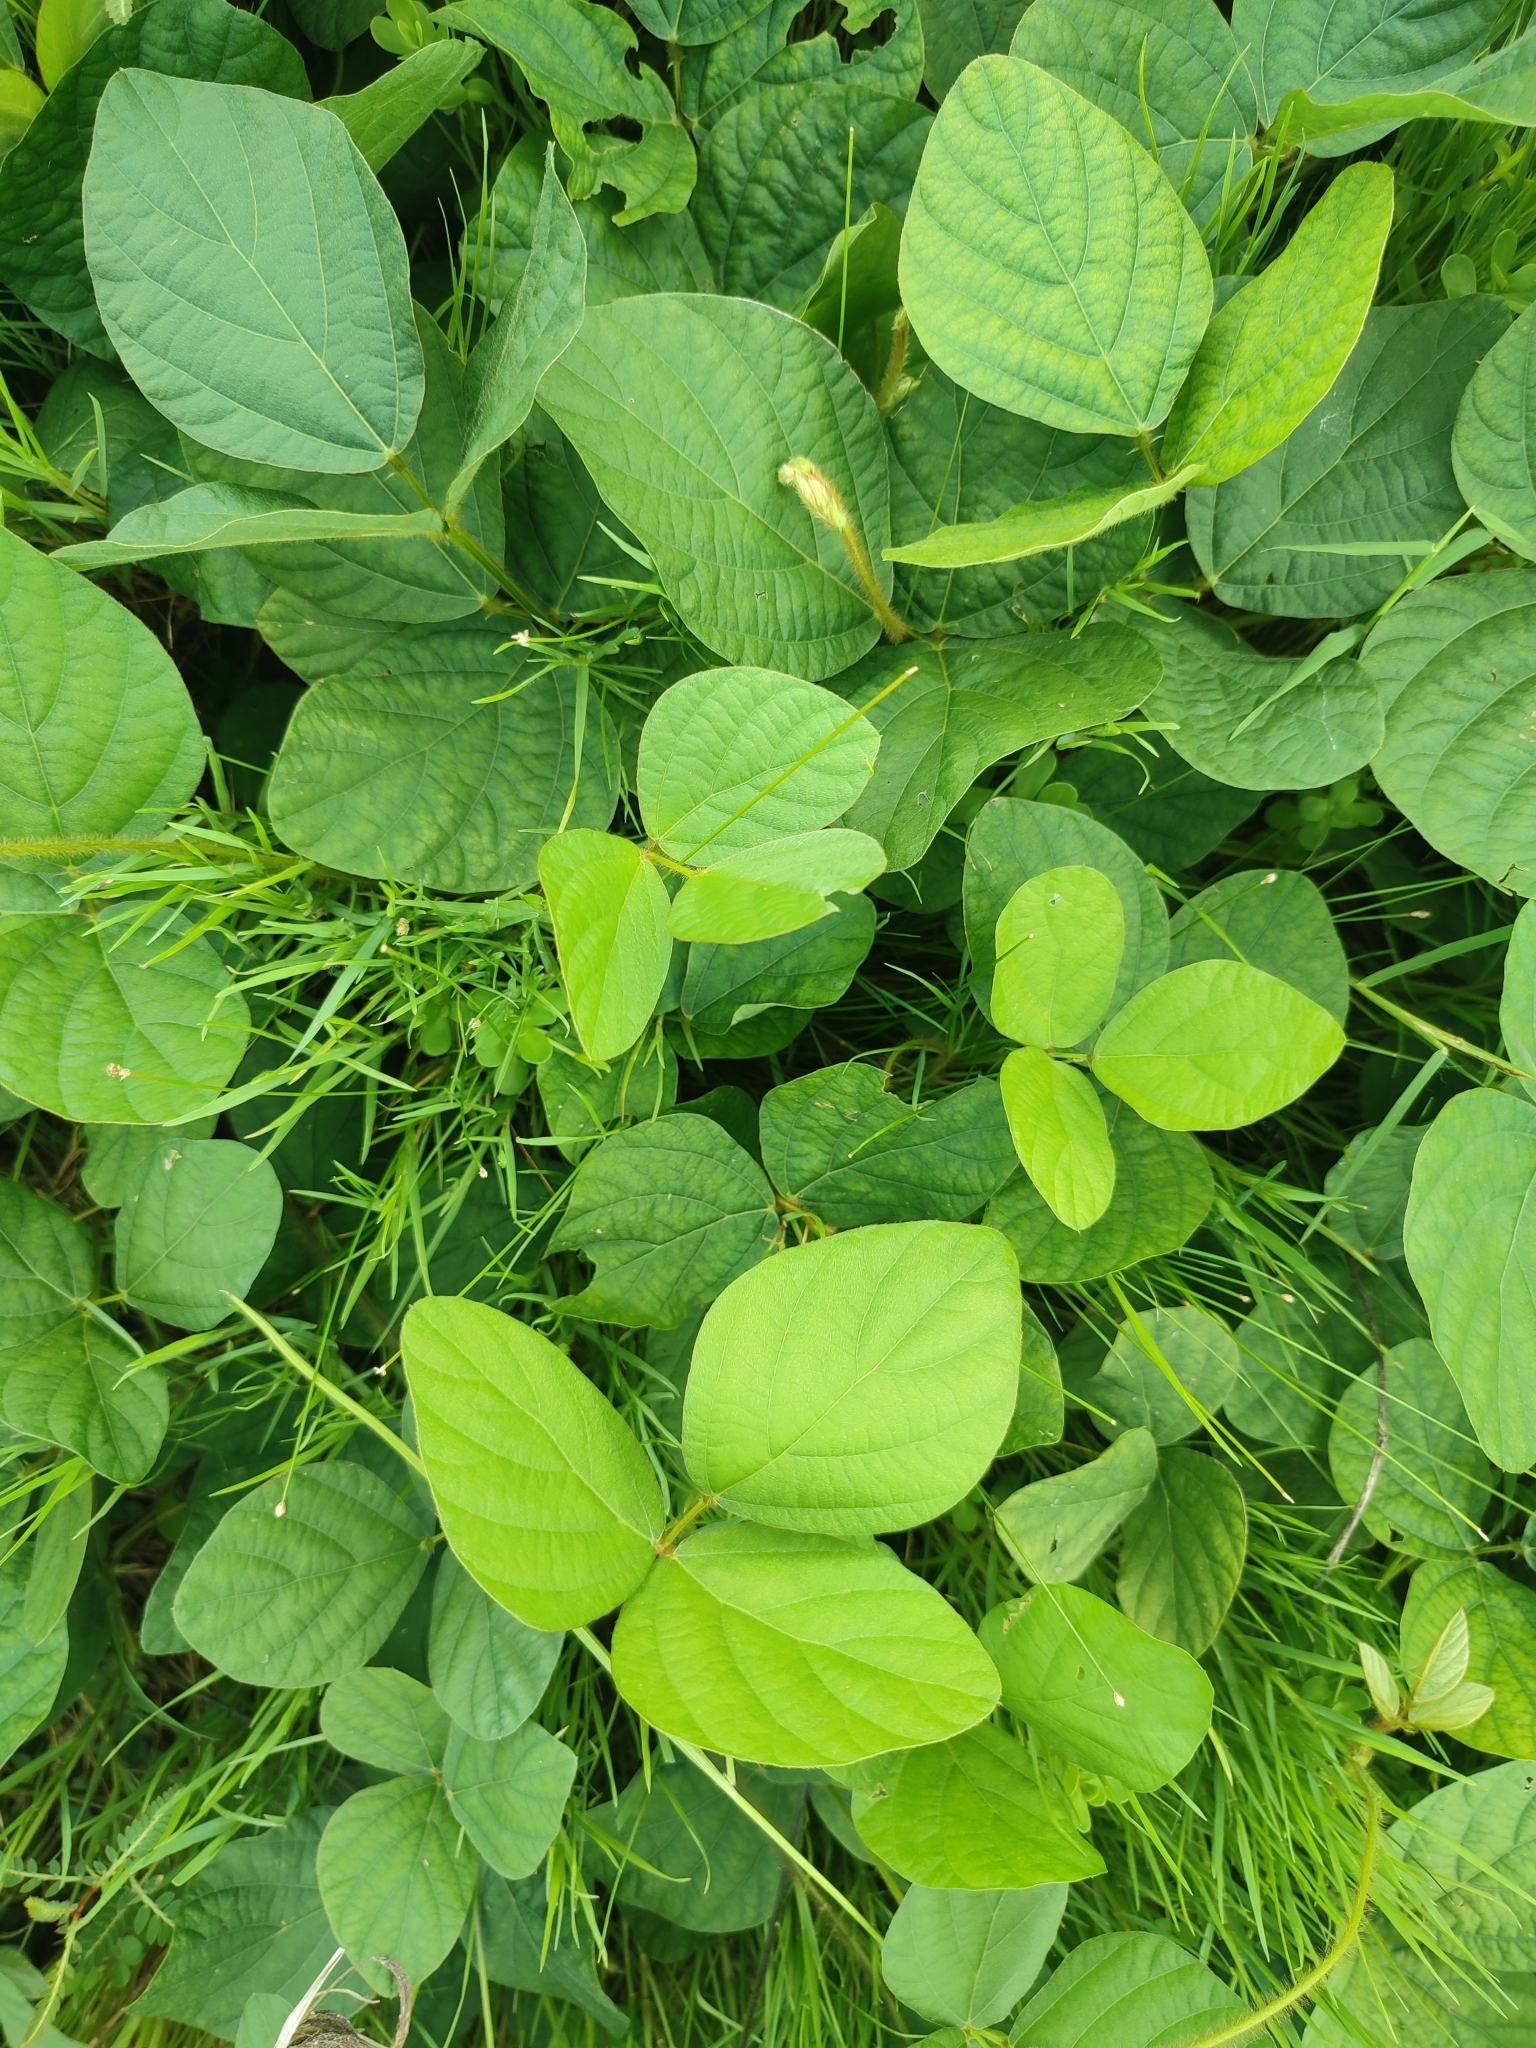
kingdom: Plantae
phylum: Tracheophyta
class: Magnoliopsida
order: Fabales
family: Fabaceae
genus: Calopogonium
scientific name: Calopogonium mucunoides
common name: Calopo
